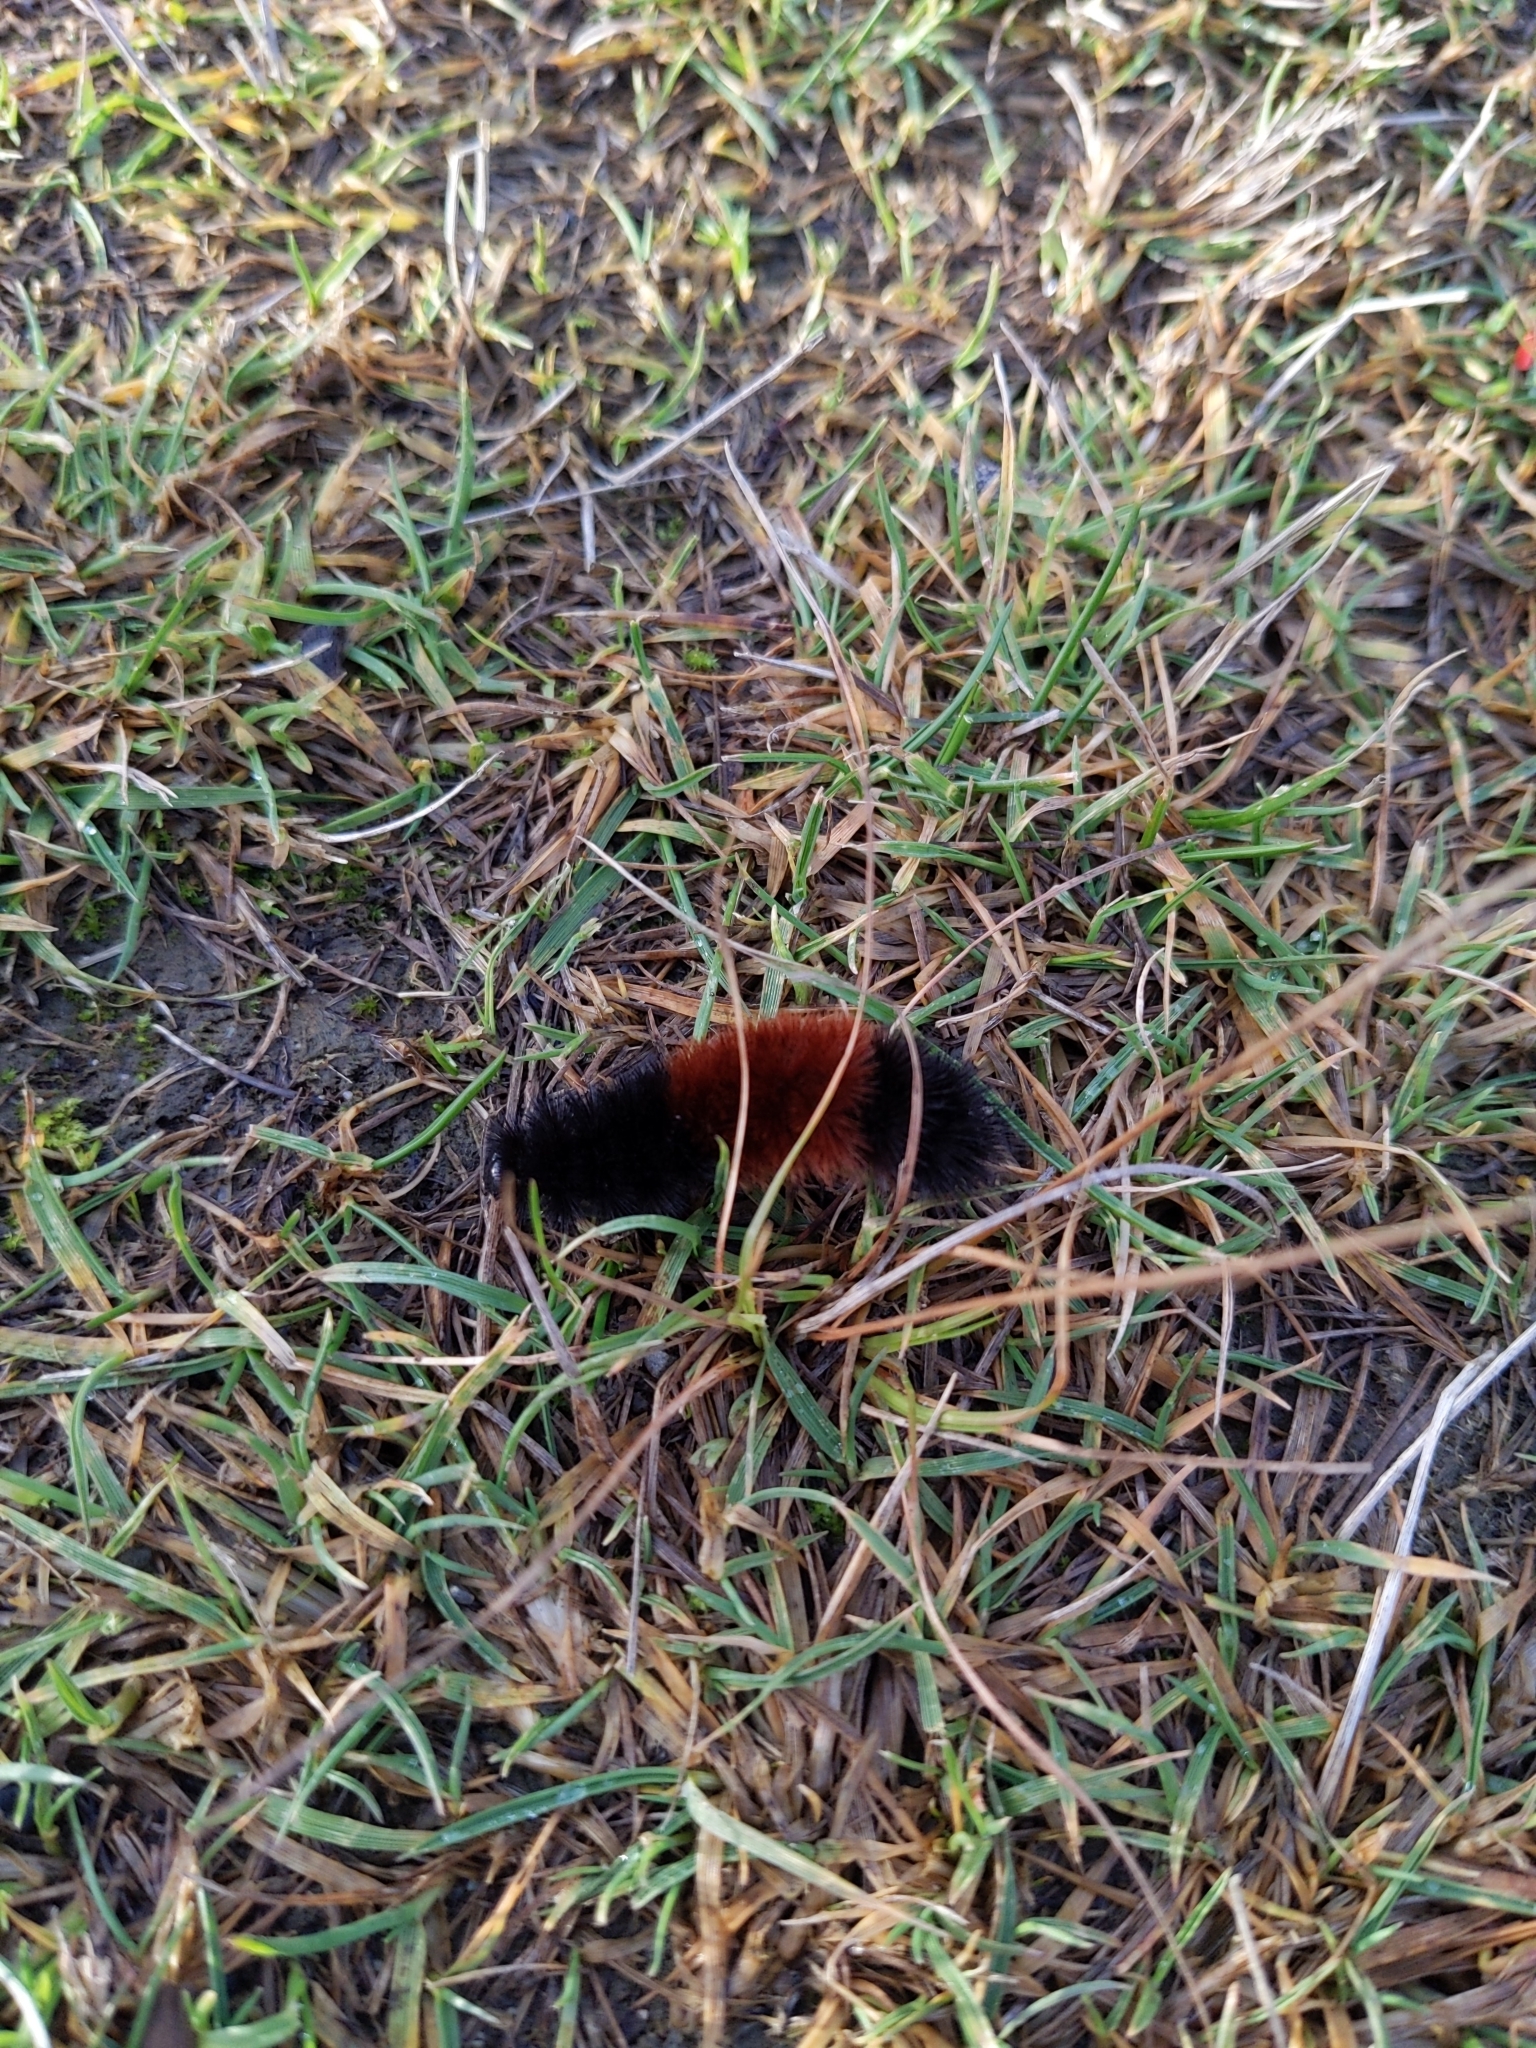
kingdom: Animalia
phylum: Arthropoda
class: Insecta
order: Lepidoptera
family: Erebidae
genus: Pyrrharctia
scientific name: Pyrrharctia isabella
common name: Isabella tiger moth
